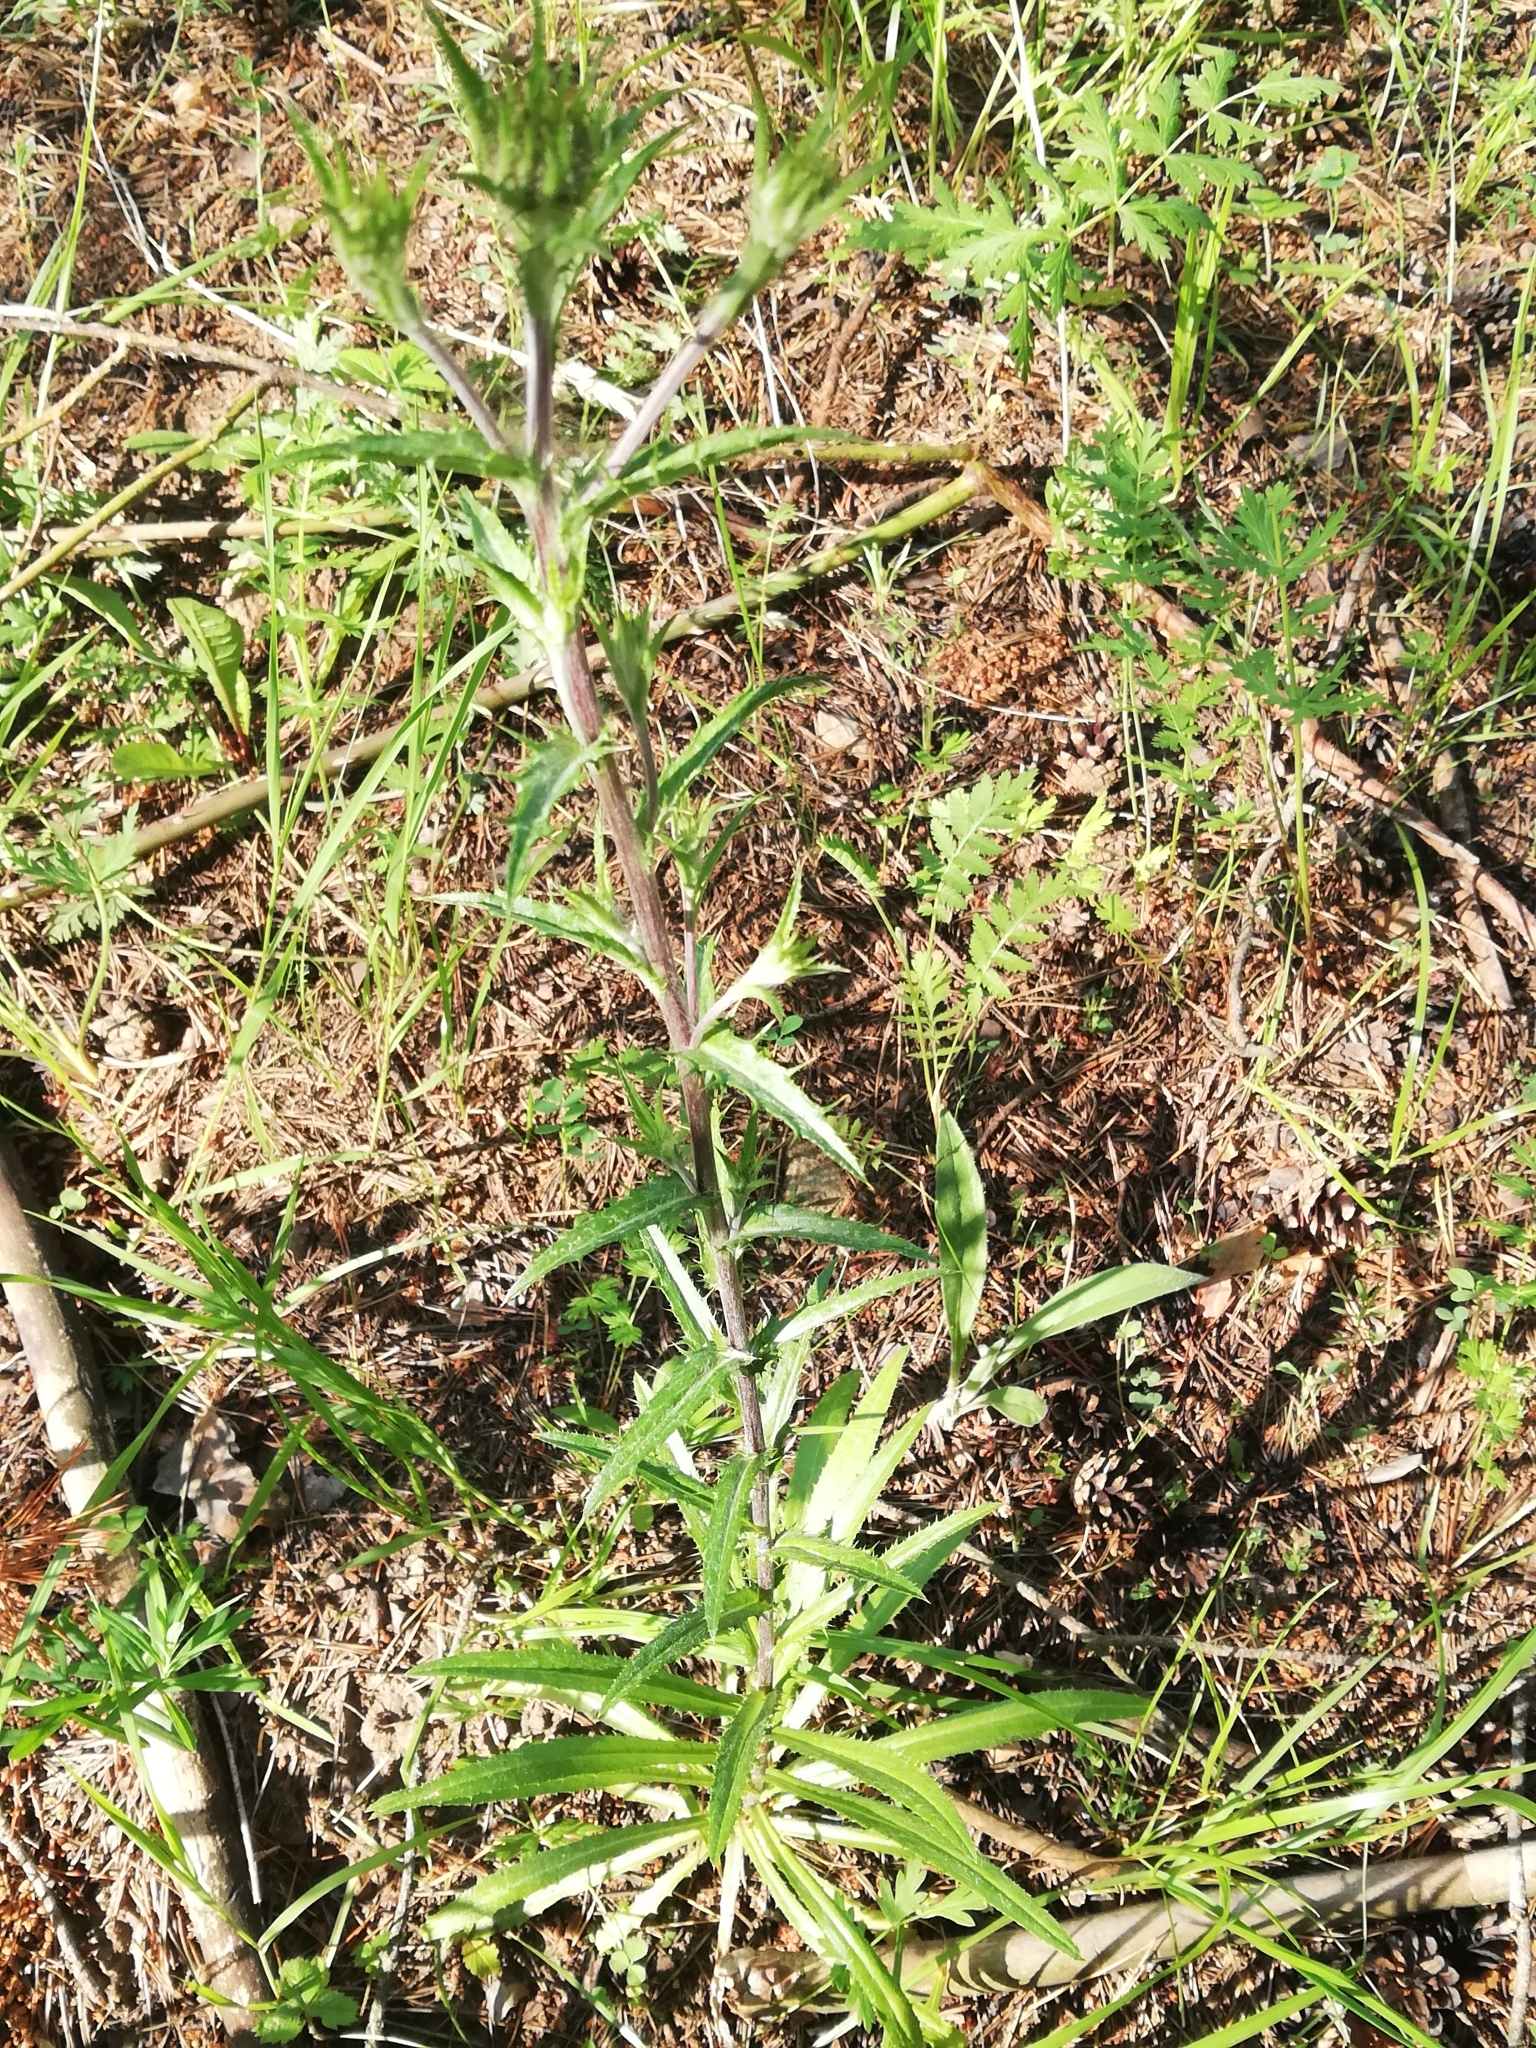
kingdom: Plantae
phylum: Tracheophyta
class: Magnoliopsida
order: Asterales
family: Asteraceae
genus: Carlina
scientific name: Carlina biebersteinii
